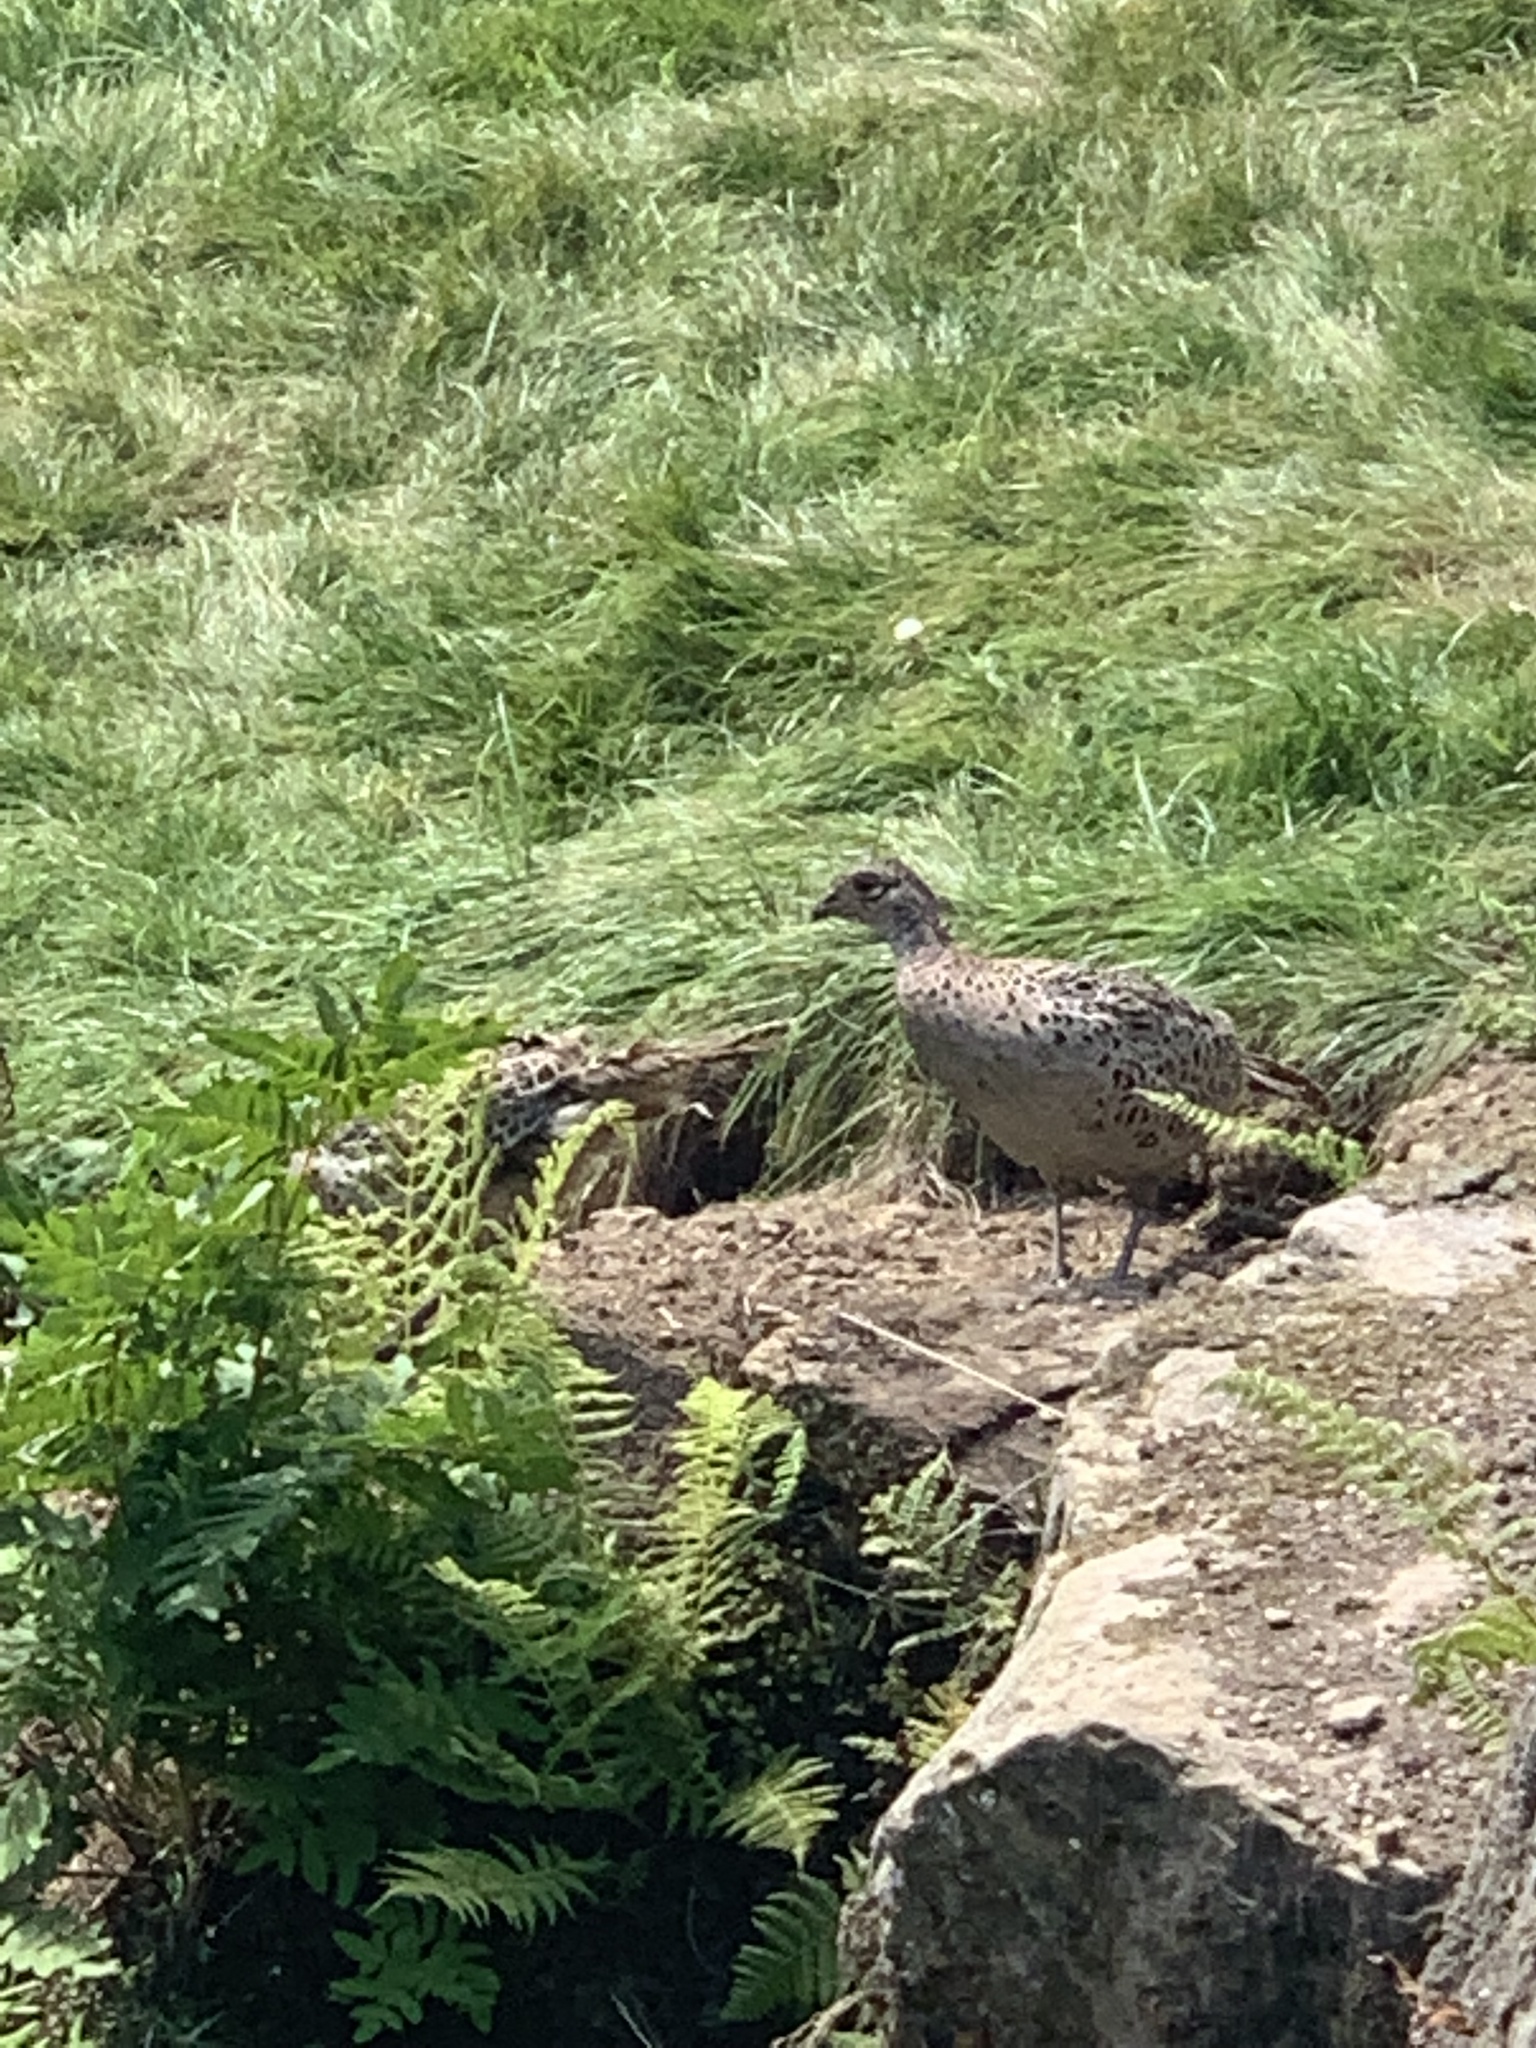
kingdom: Animalia
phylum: Chordata
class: Aves
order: Galliformes
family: Phasianidae
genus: Phasianus
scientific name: Phasianus colchicus
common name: Common pheasant
